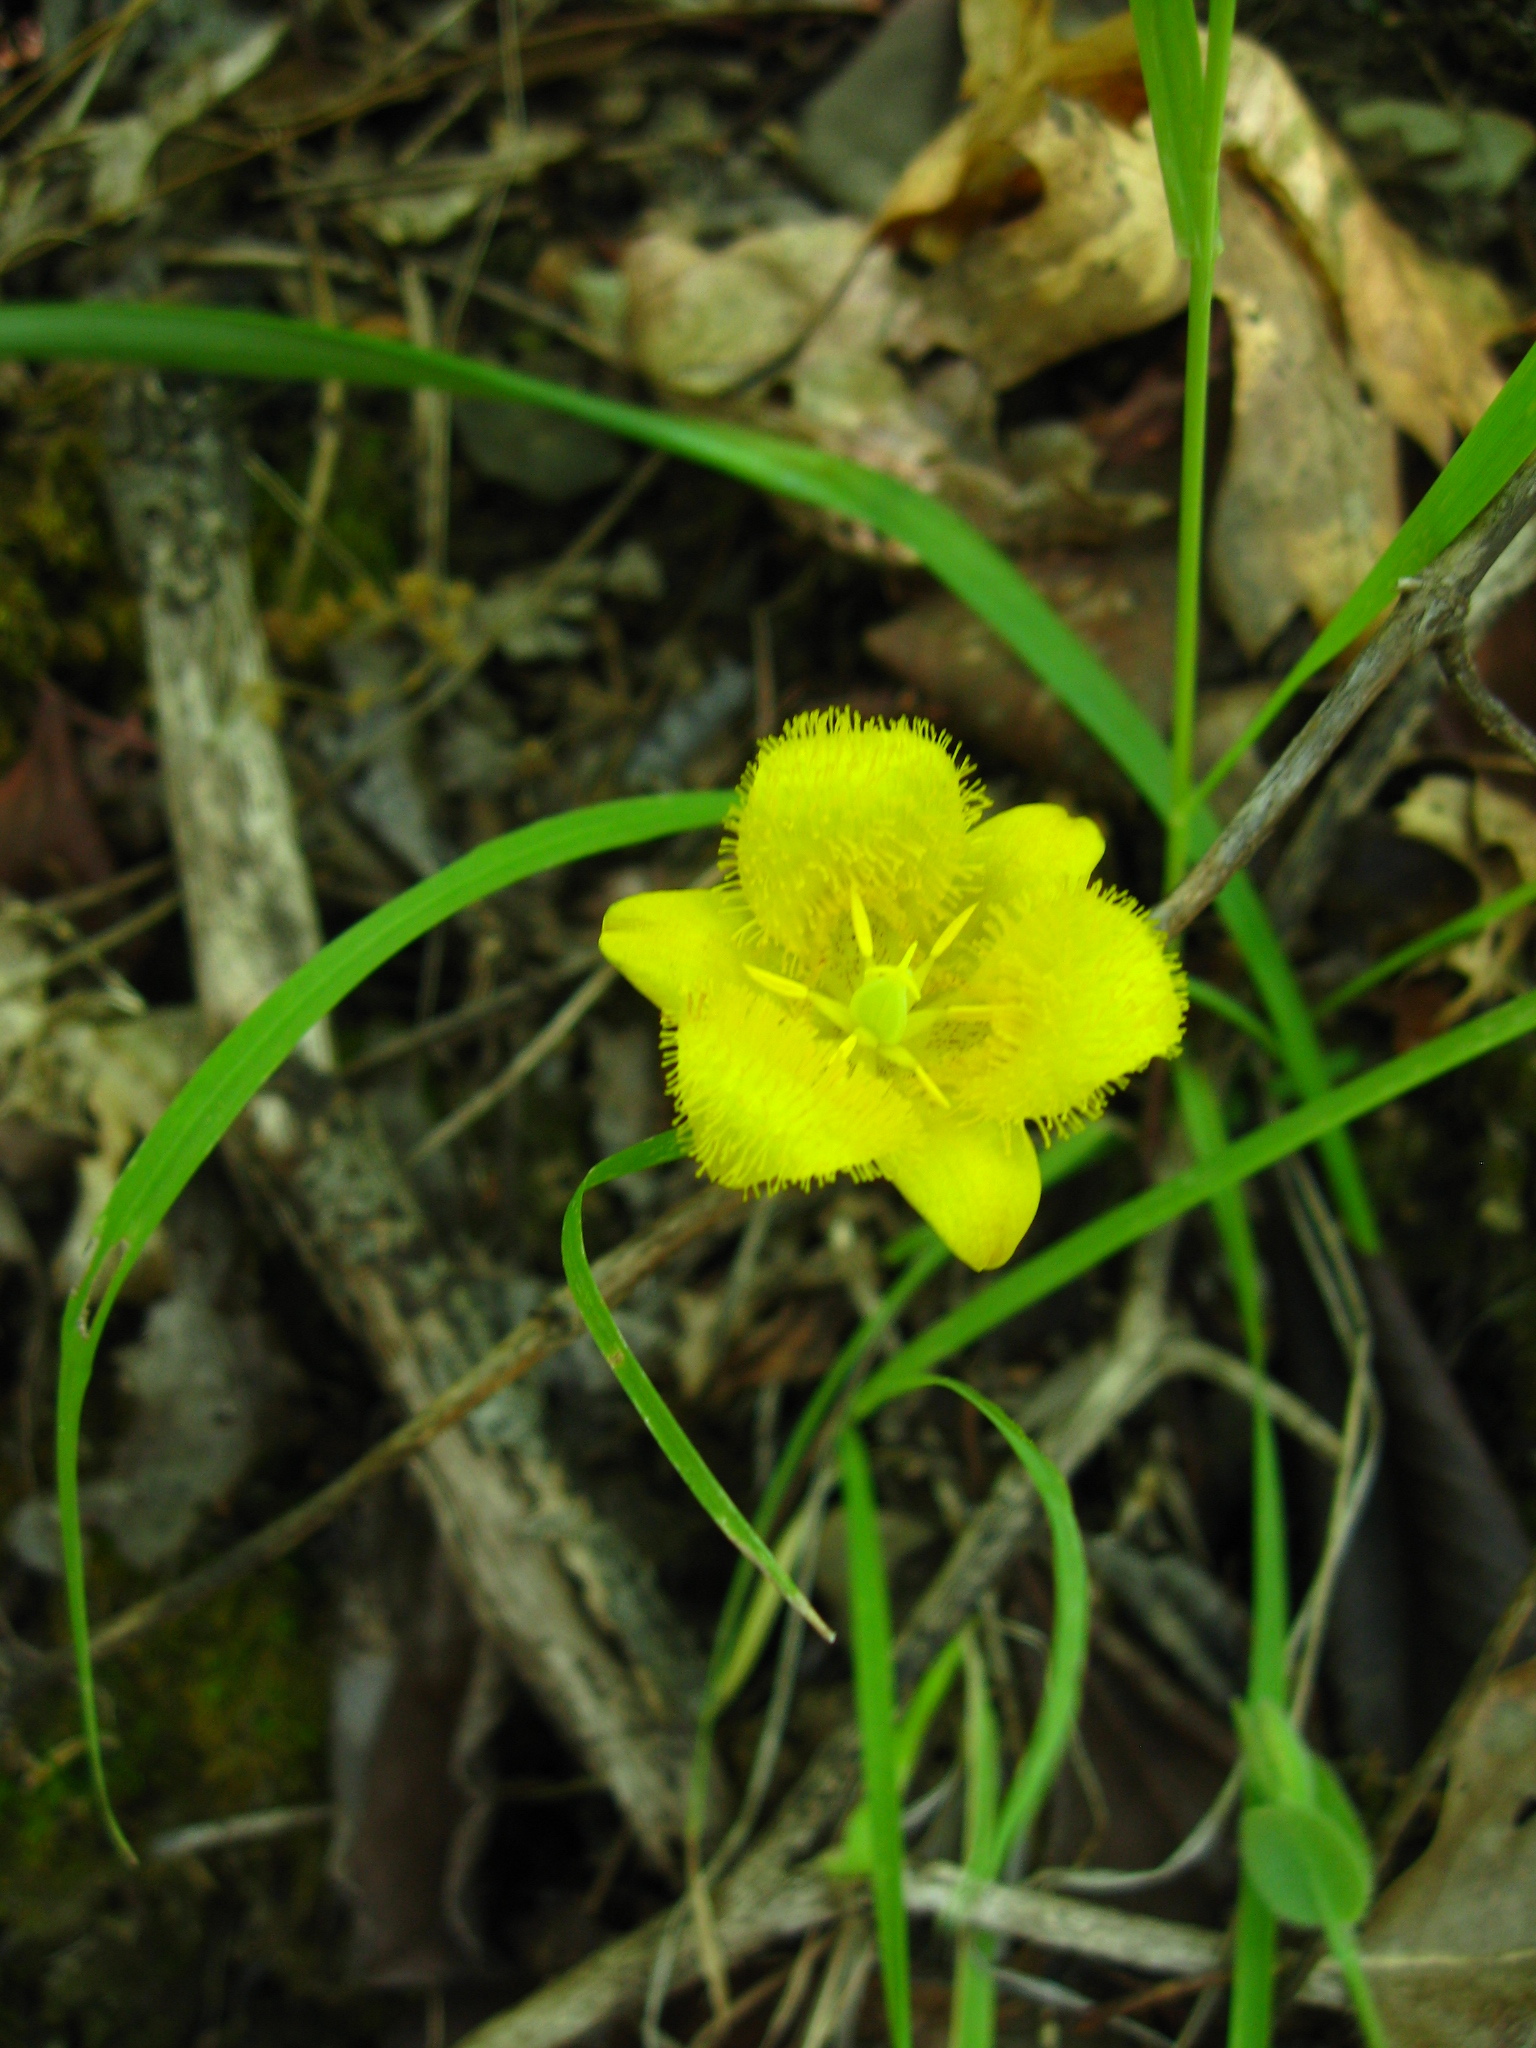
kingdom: Plantae
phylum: Tracheophyta
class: Liliopsida
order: Liliales
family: Liliaceae
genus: Calochortus
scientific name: Calochortus monophyllus
